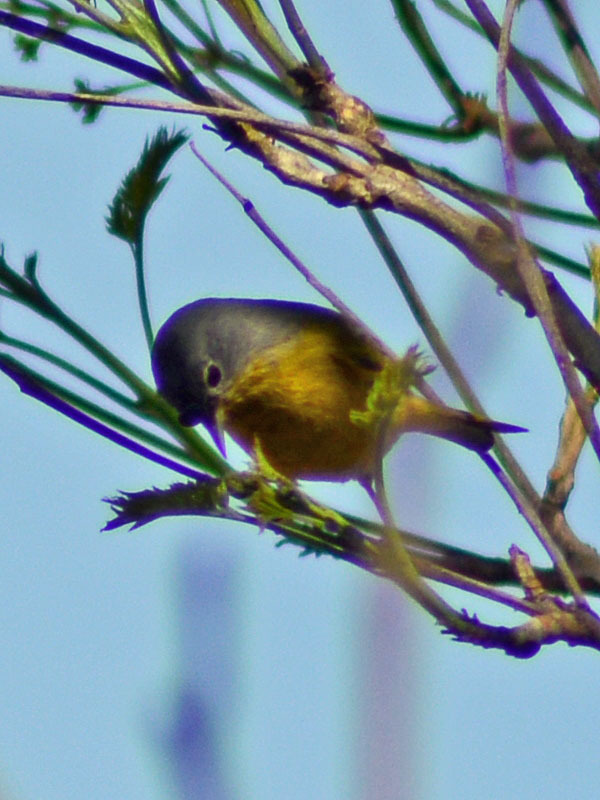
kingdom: Animalia
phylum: Chordata
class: Aves
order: Passeriformes
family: Parulidae
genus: Leiothlypis
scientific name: Leiothlypis ruficapilla
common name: Nashville warbler
